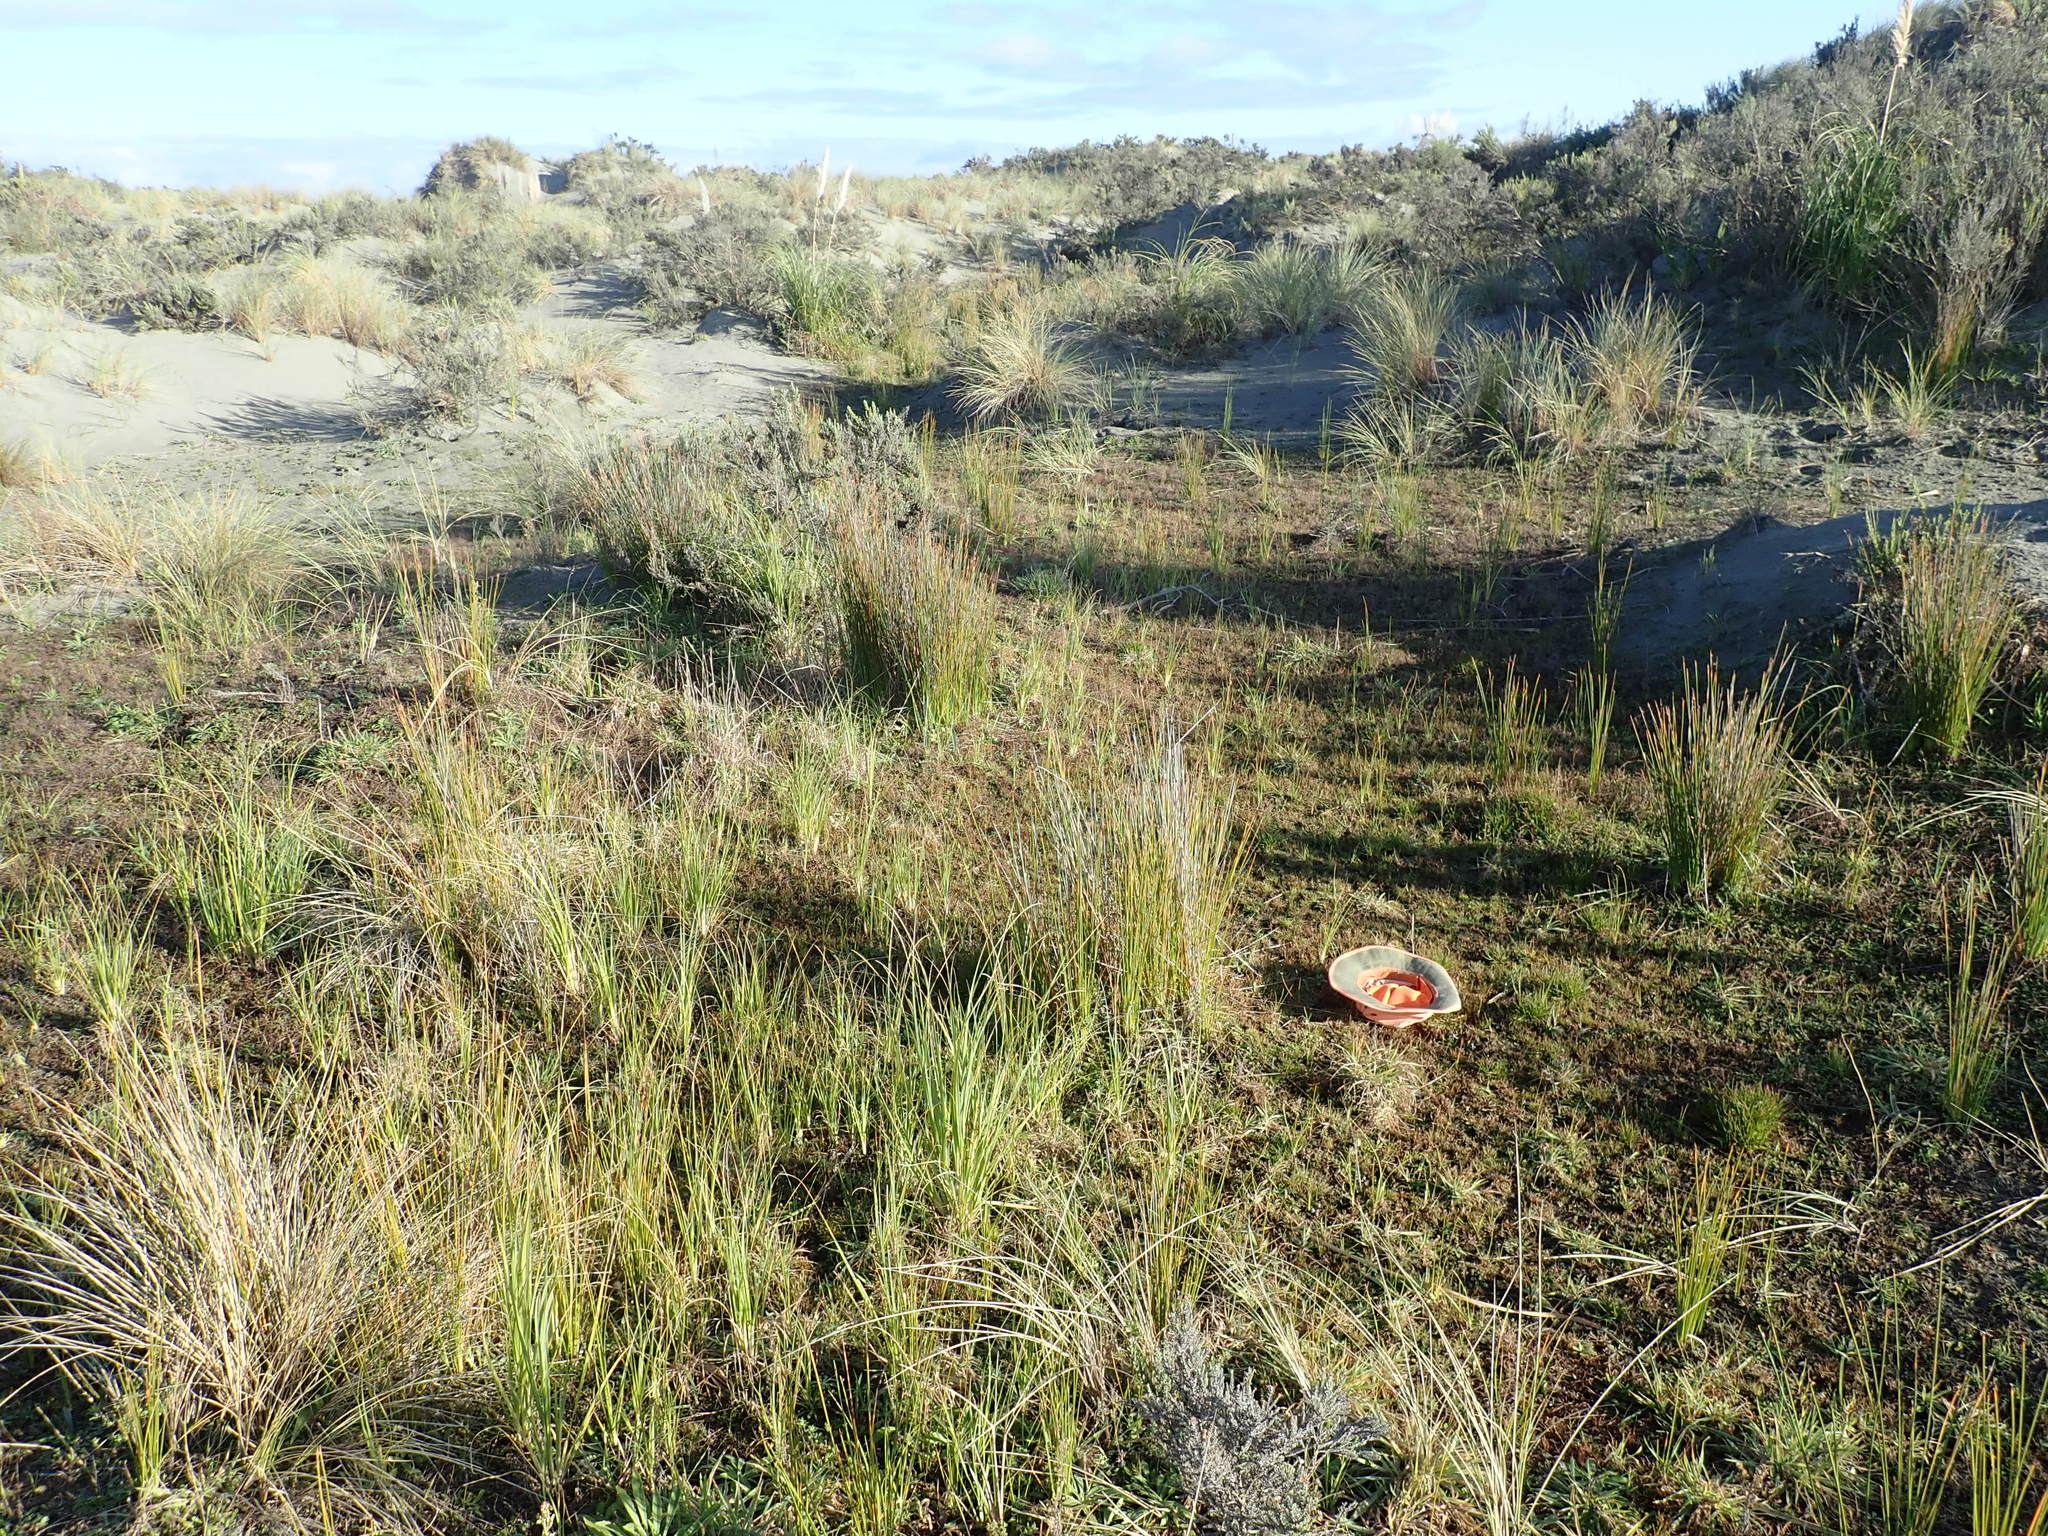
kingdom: Plantae
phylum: Tracheophyta
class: Liliopsida
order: Poales
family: Juncaceae
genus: Juncus
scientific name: Juncus caespiticius
